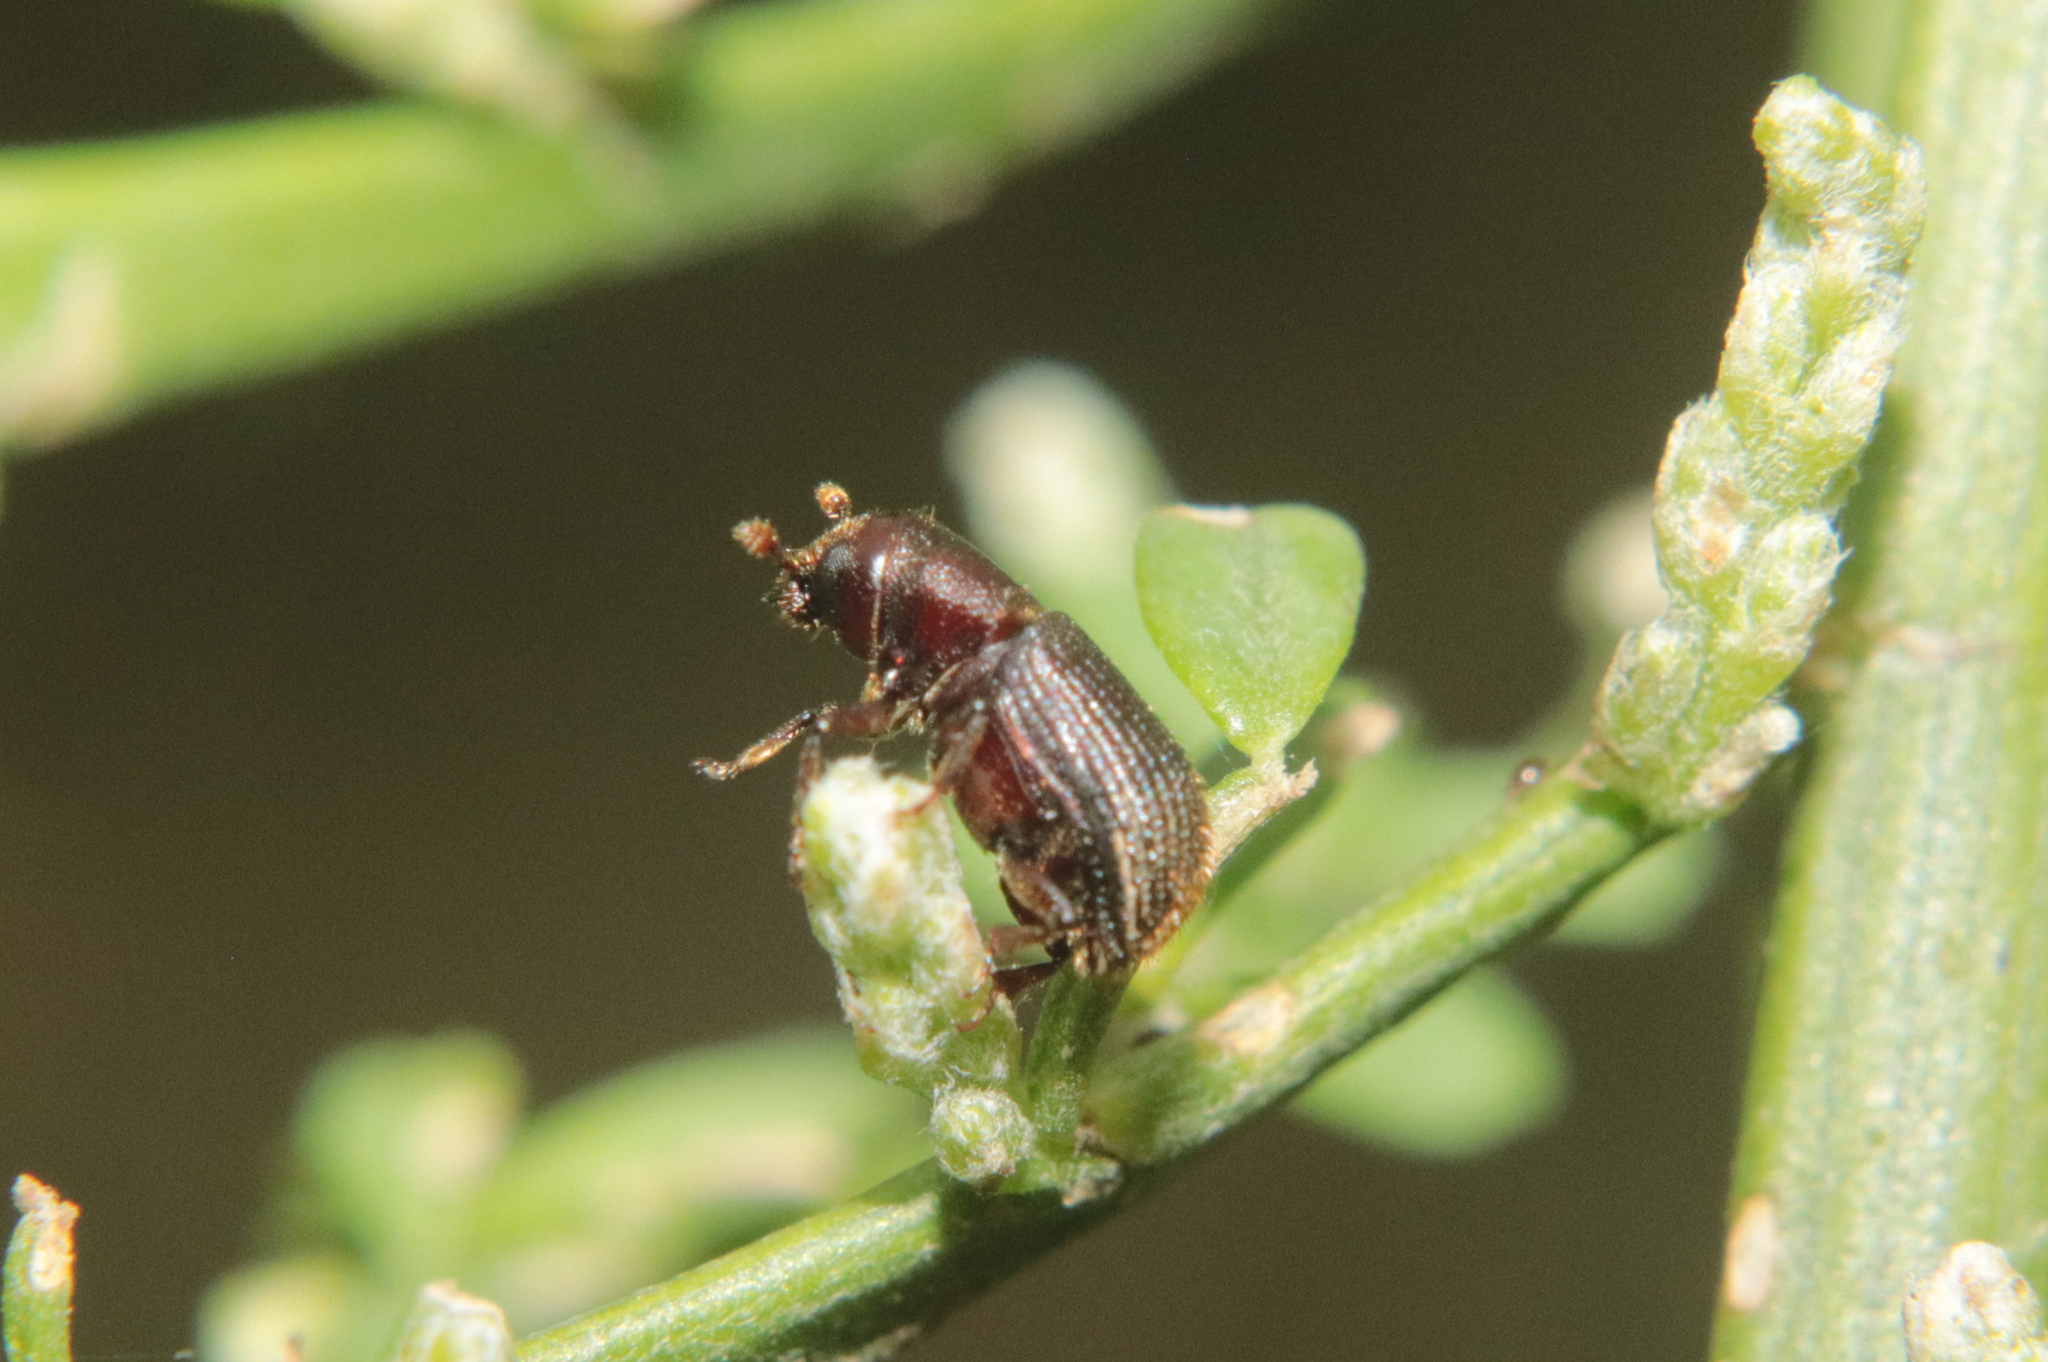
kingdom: Animalia
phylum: Arthropoda
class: Insecta
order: Coleoptera
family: Curculionidae
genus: Pachycotes
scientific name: Pachycotes peregrinus
